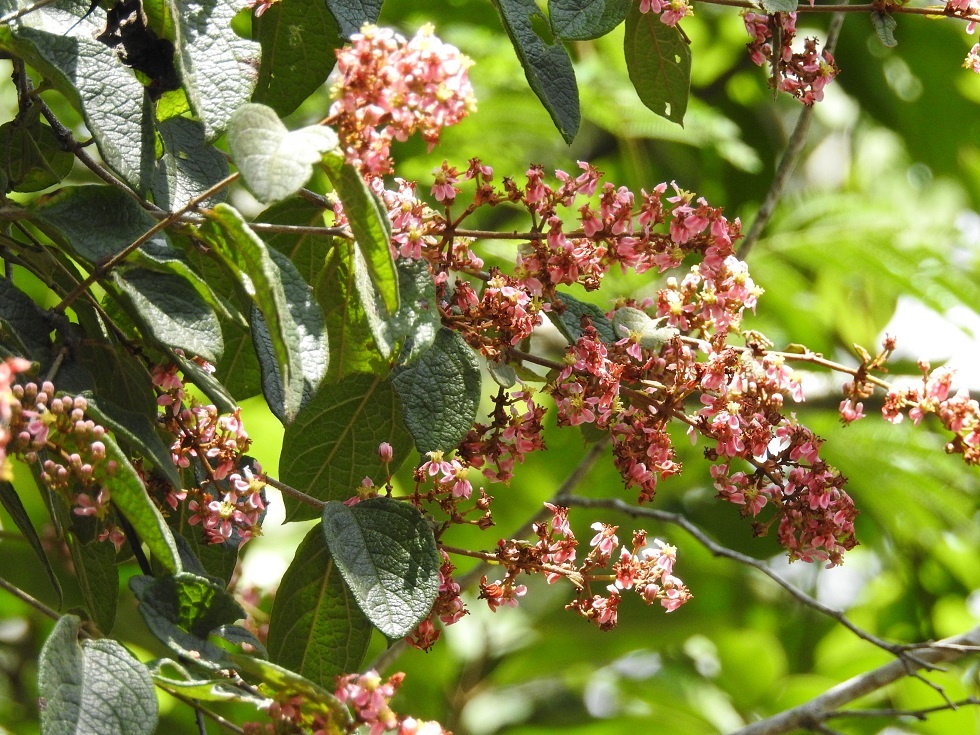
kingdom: Plantae
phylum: Tracheophyta
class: Magnoliopsida
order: Malpighiales
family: Malpighiaceae
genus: Heteropterys
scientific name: Heteropterys brachiata
